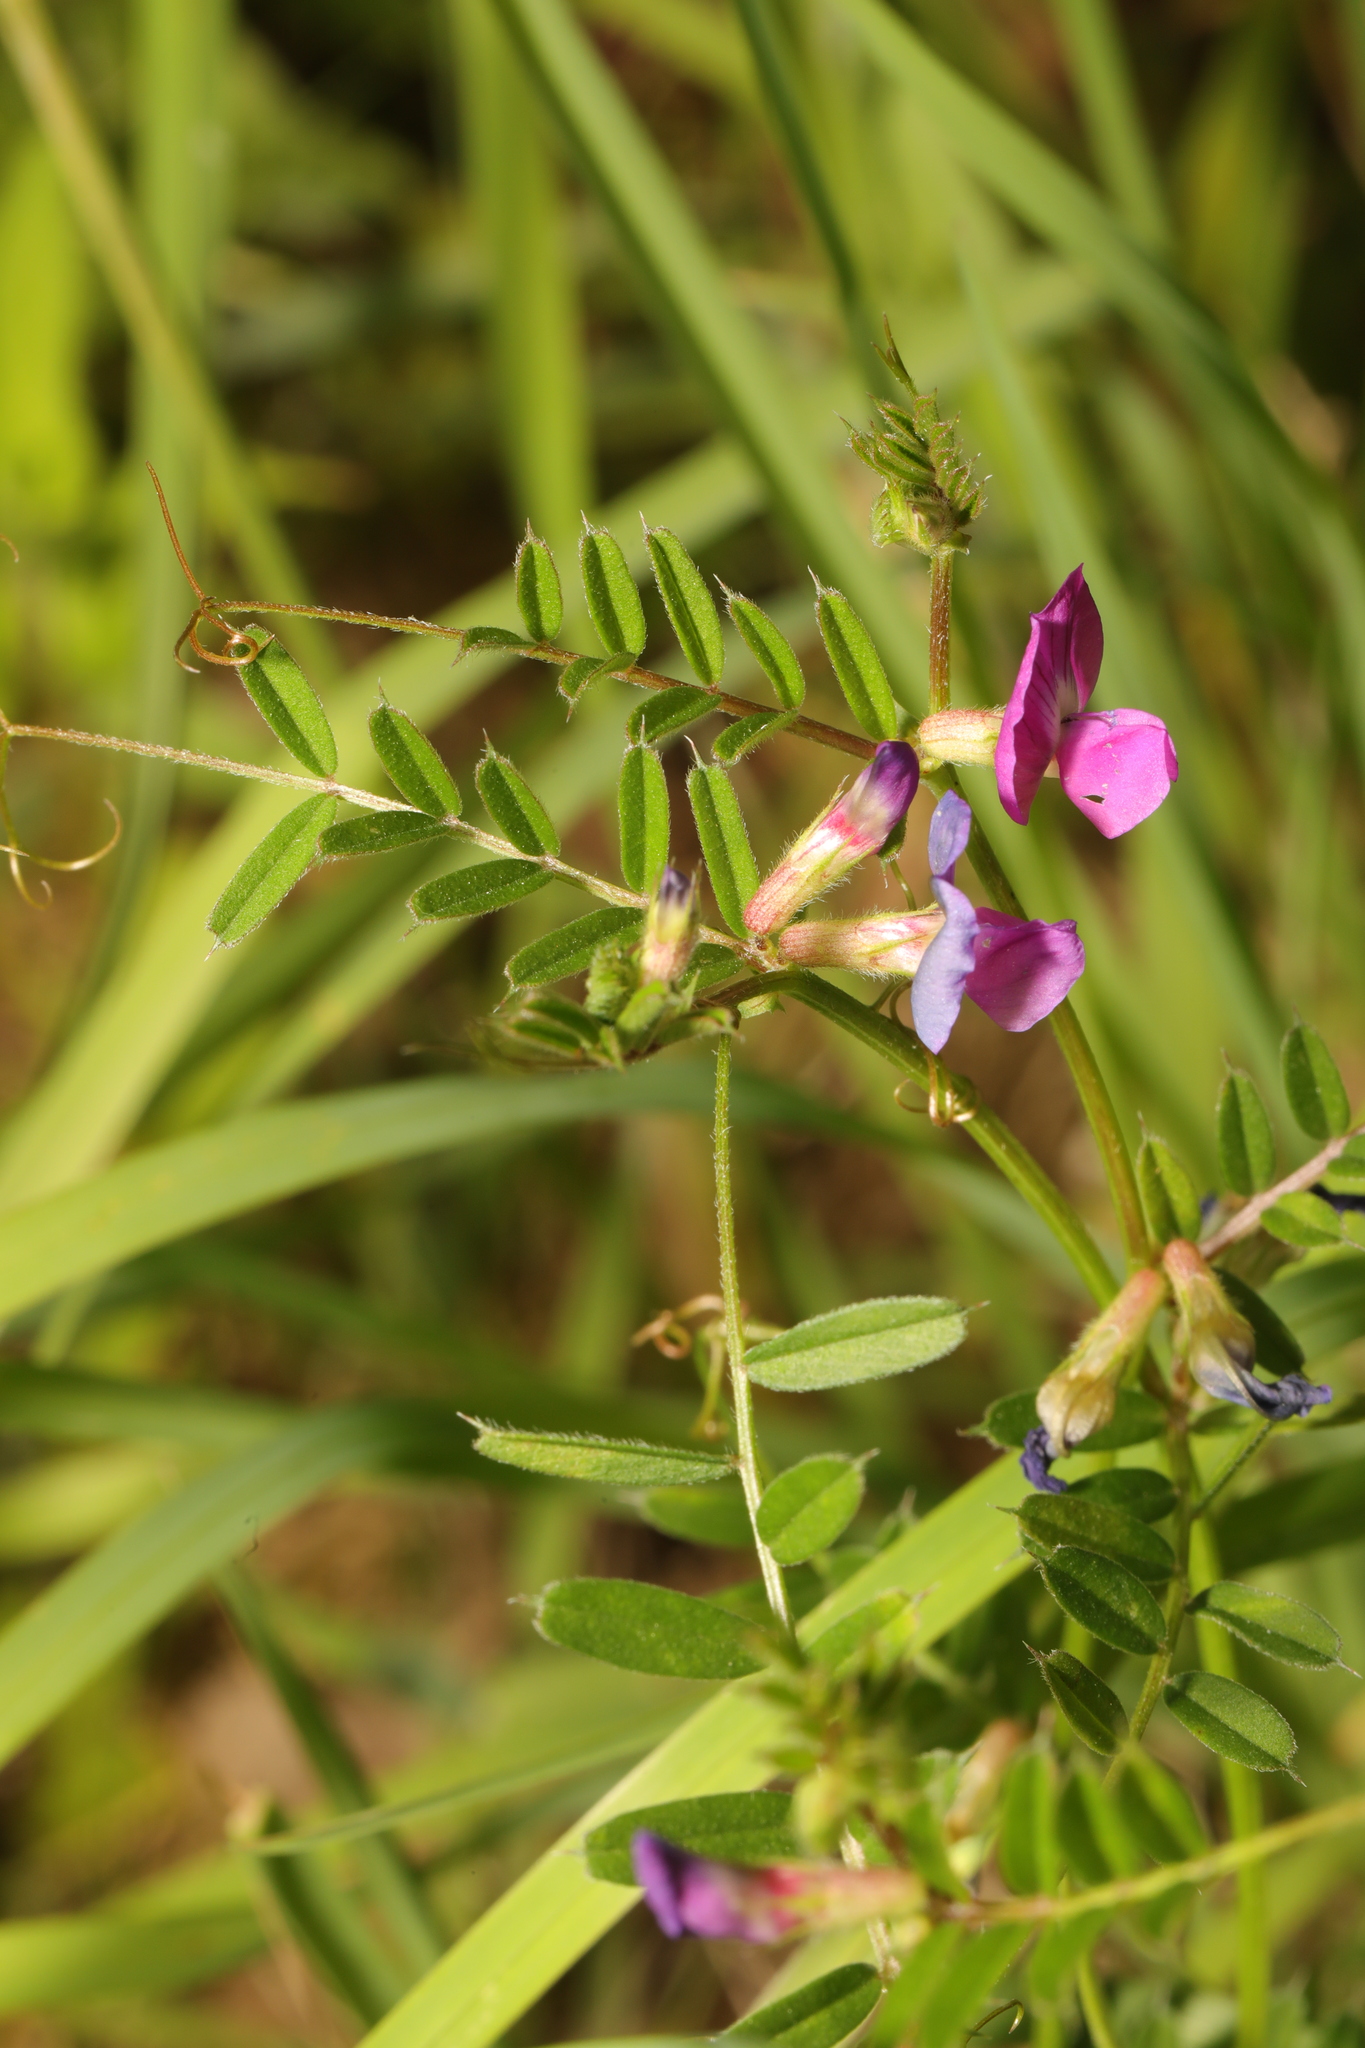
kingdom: Plantae
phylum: Tracheophyta
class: Magnoliopsida
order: Fabales
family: Fabaceae
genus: Vicia
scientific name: Vicia sativa
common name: Garden vetch
